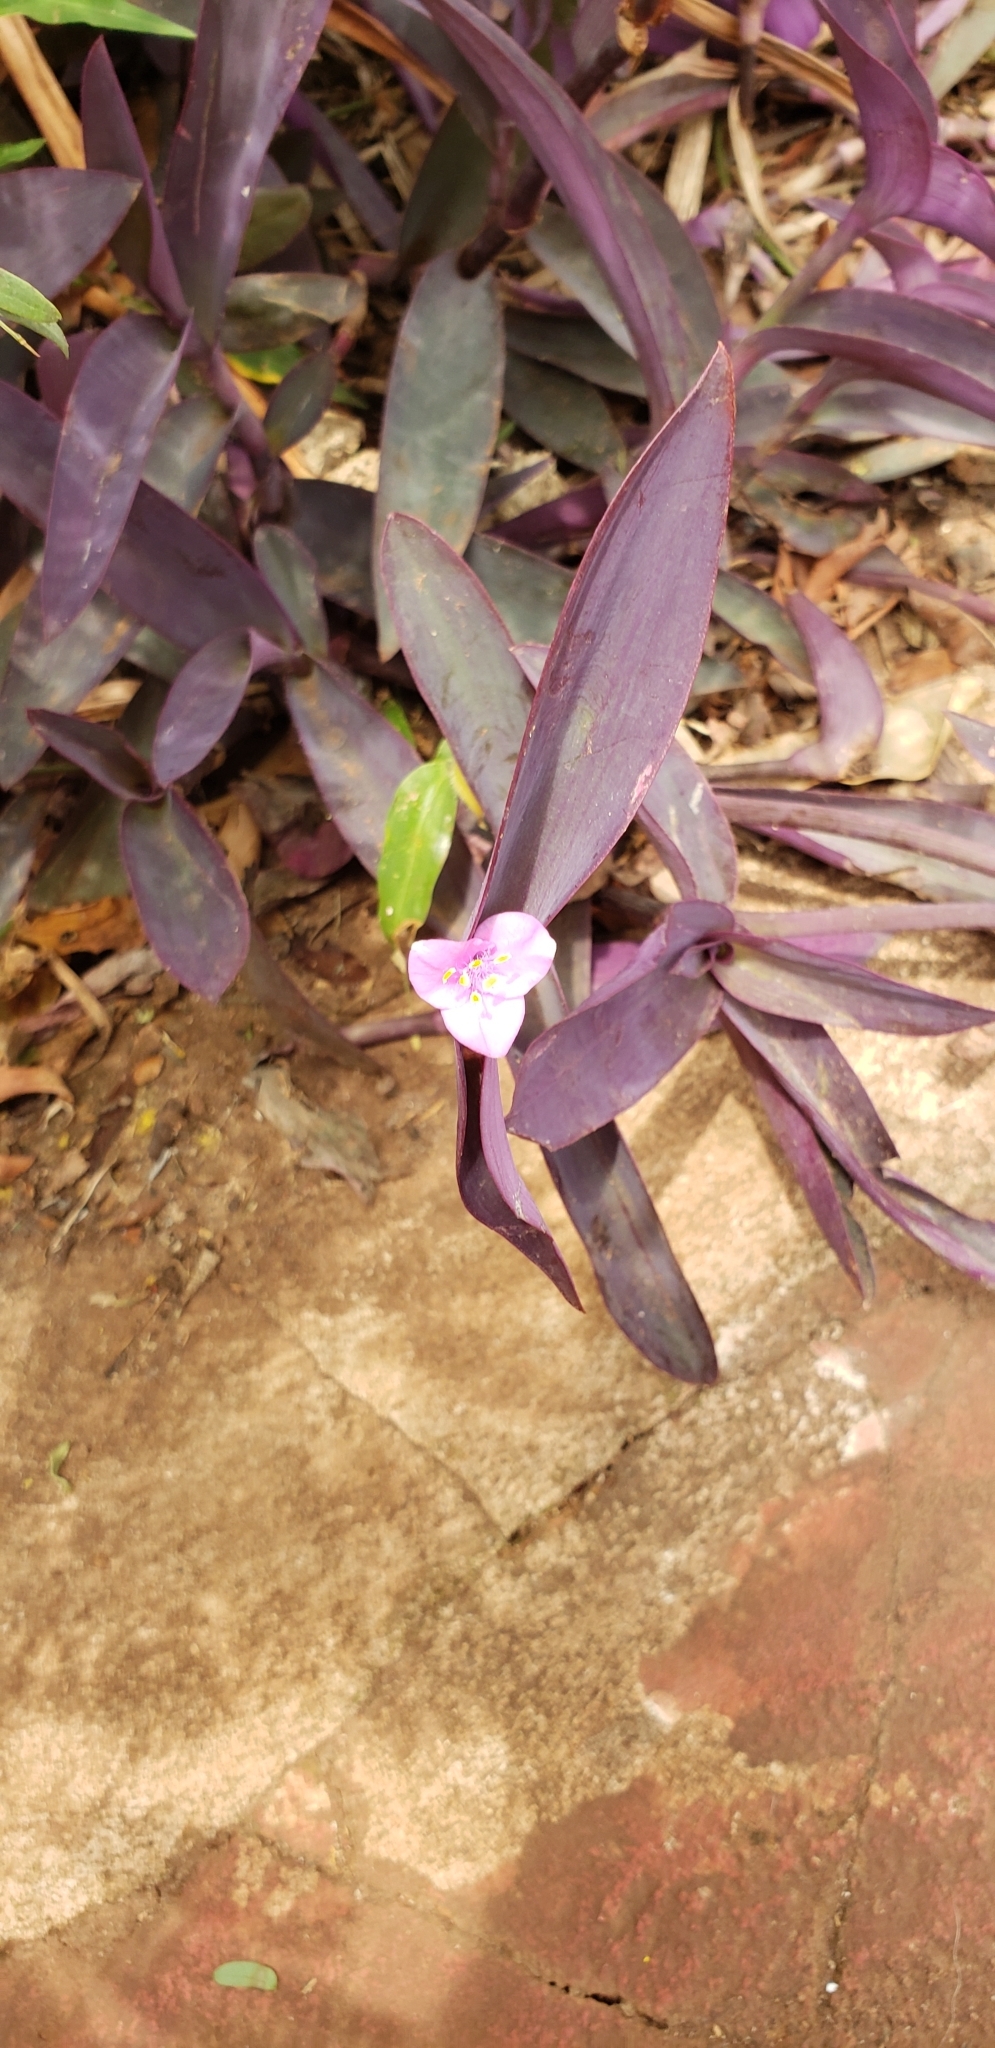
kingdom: Plantae
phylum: Tracheophyta
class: Liliopsida
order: Commelinales
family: Commelinaceae
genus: Tradescantia
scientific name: Tradescantia pallida
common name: Purpleheart
